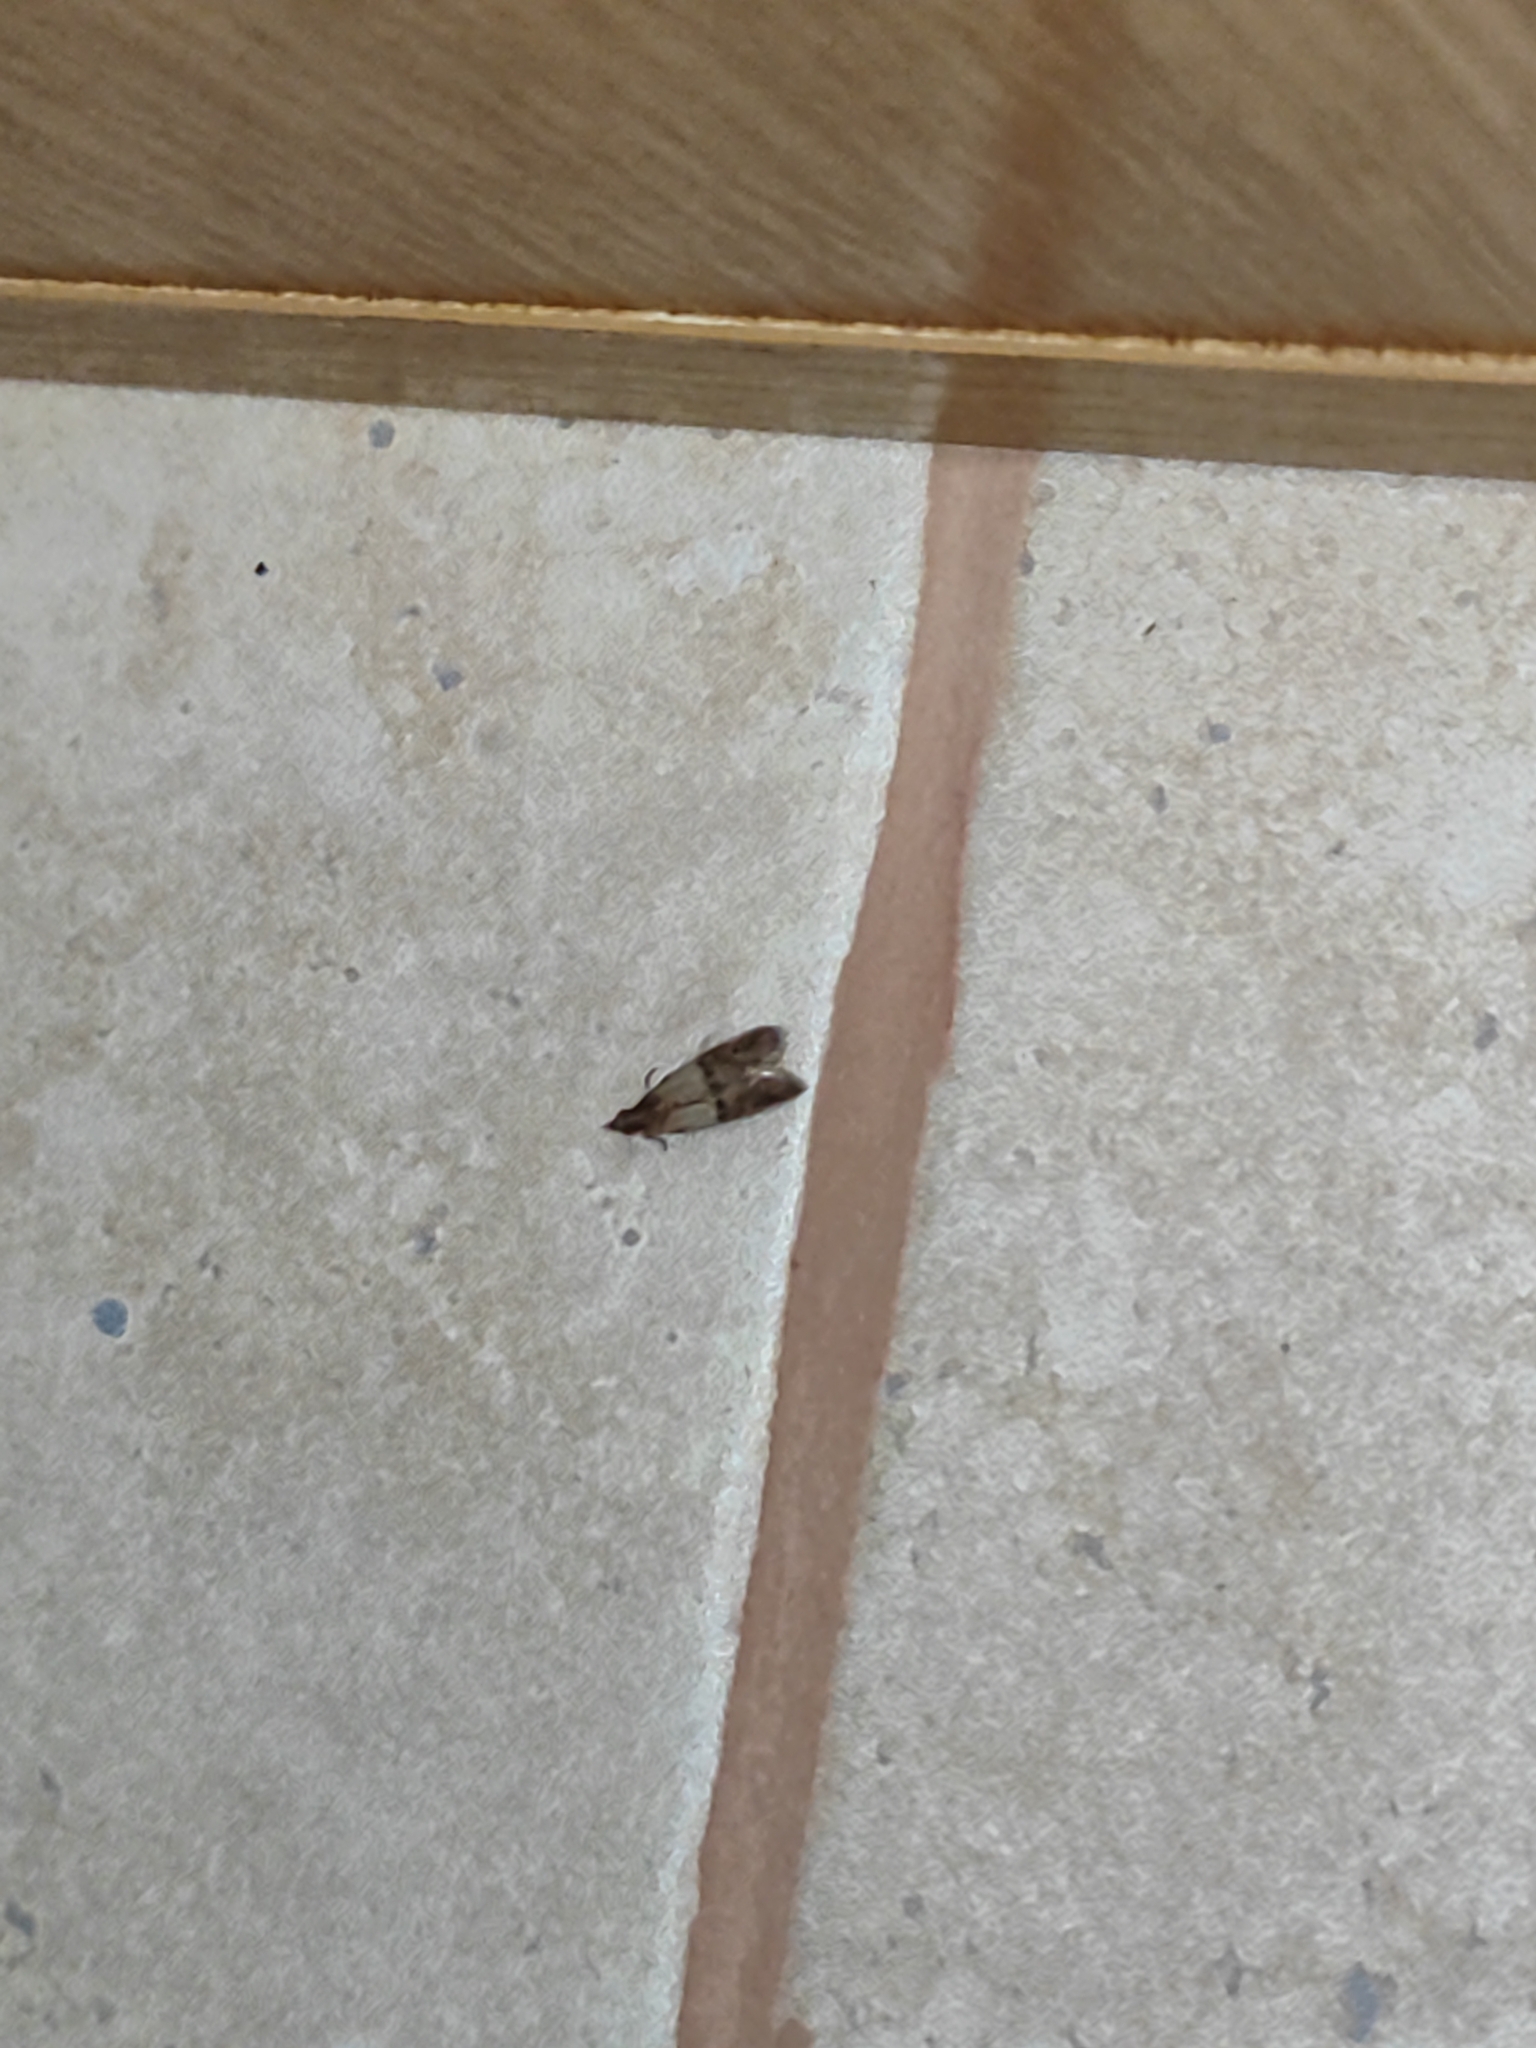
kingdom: Animalia
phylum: Arthropoda
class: Insecta
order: Lepidoptera
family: Pyralidae
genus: Plodia
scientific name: Plodia interpunctella
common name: Indian meal moth
